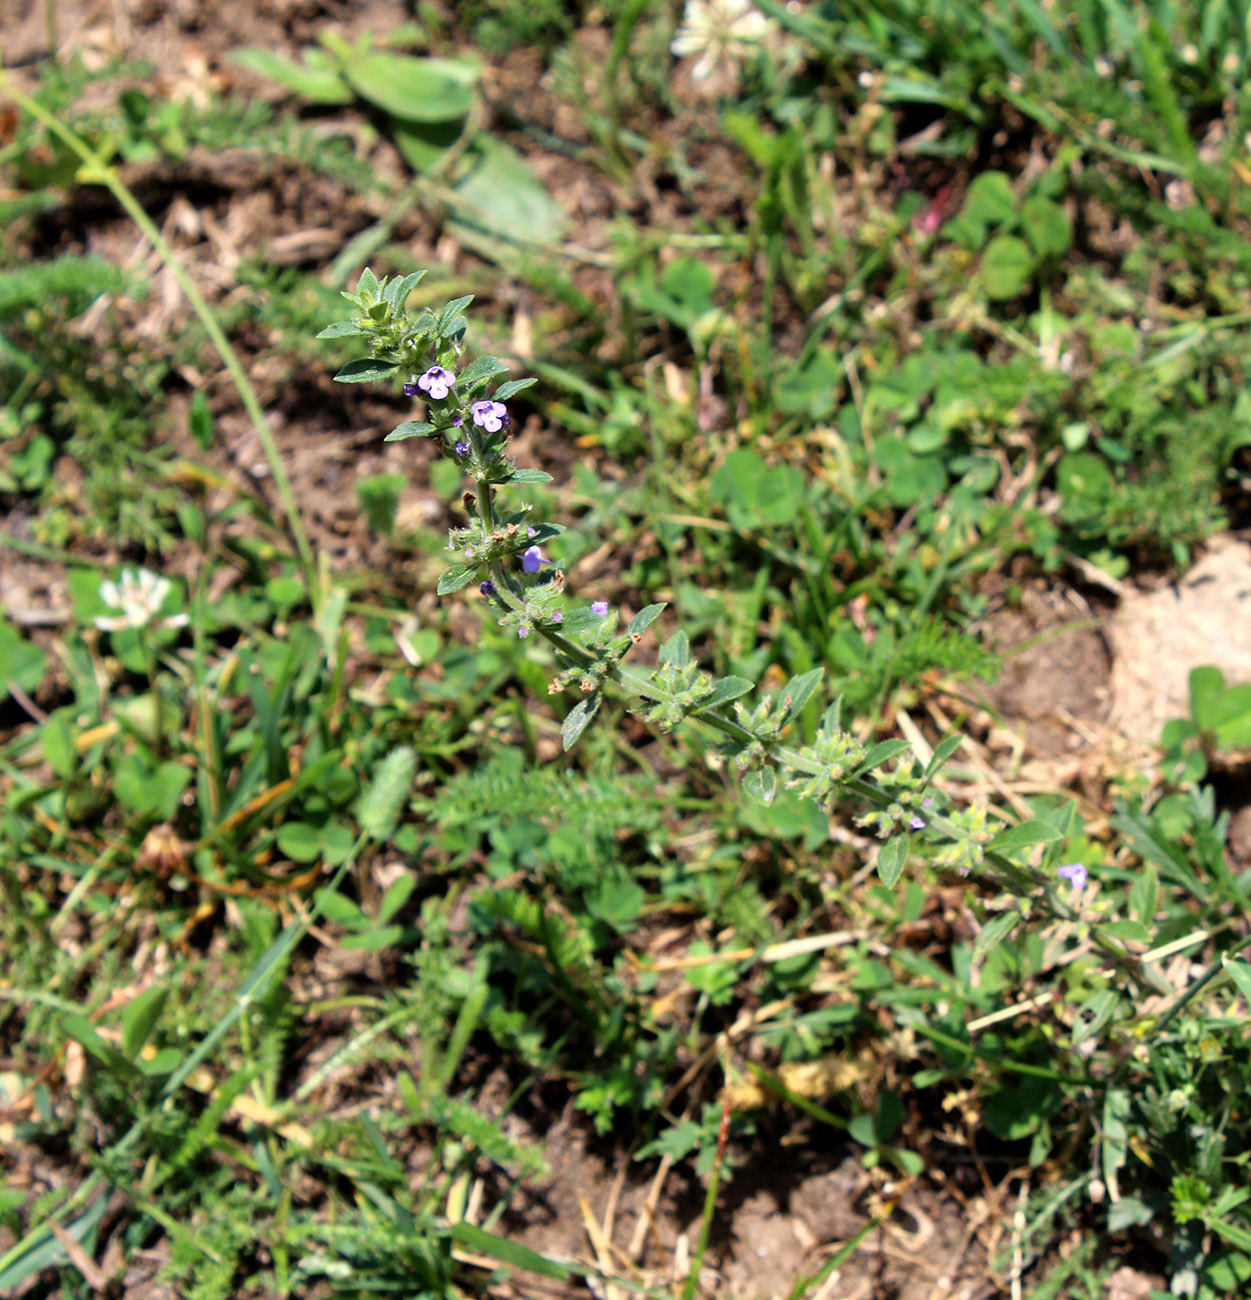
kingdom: Plantae
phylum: Tracheophyta
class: Magnoliopsida
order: Lamiales
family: Lamiaceae
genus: Clinopodium
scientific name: Clinopodium acinos
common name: Basil thyme
